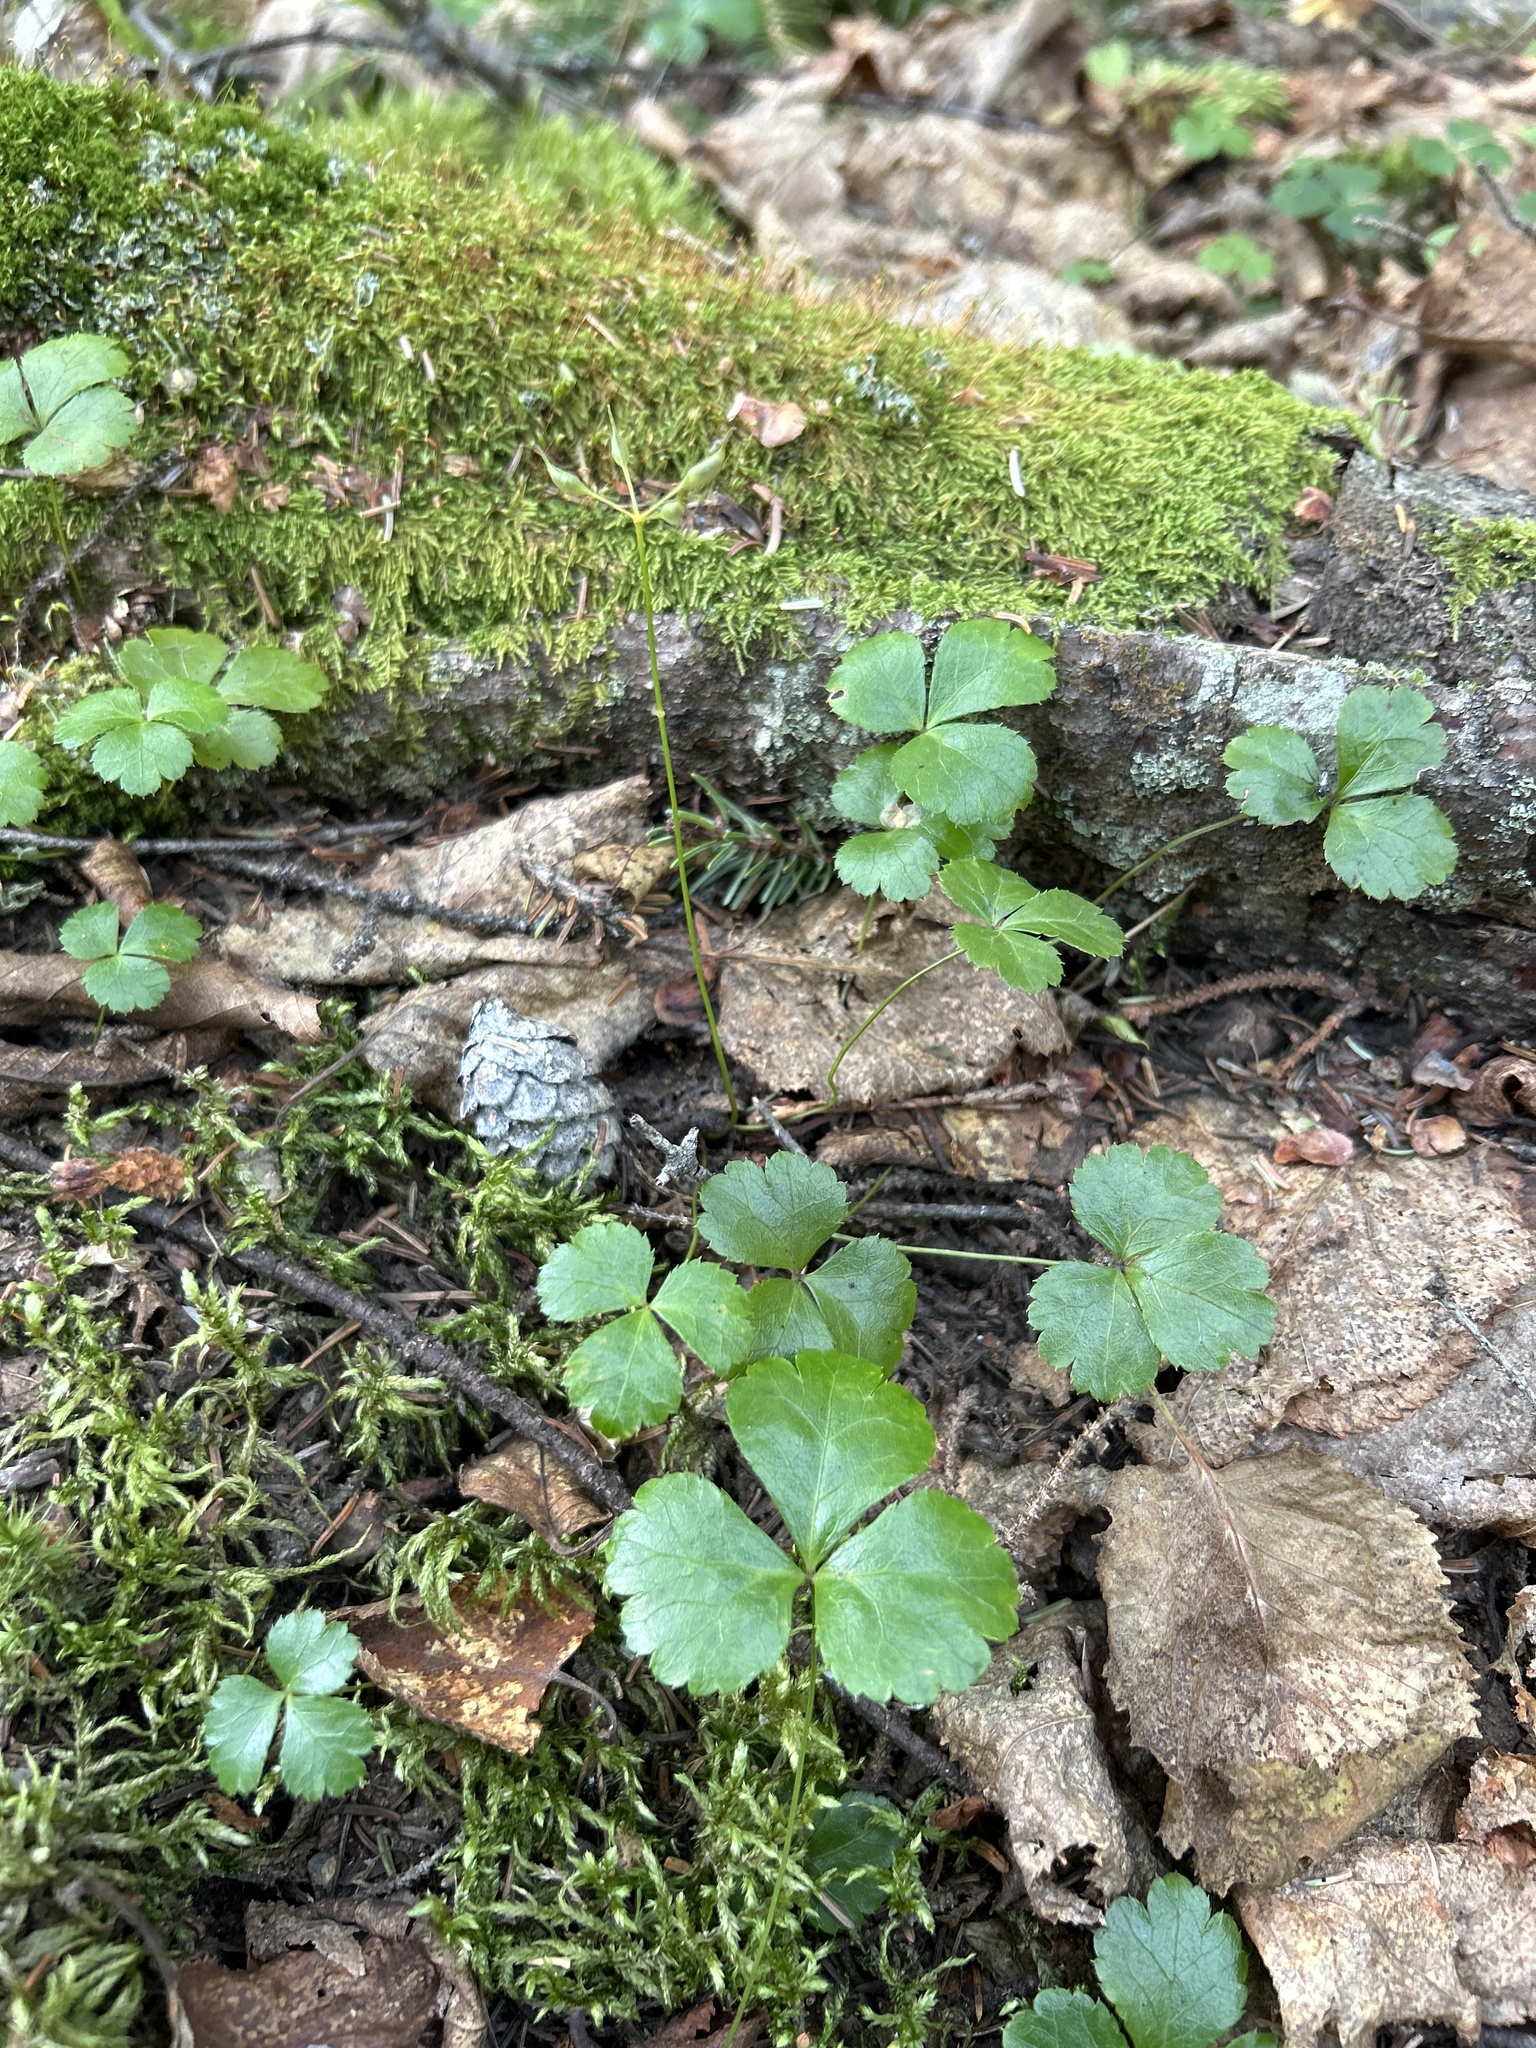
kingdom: Plantae
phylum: Tracheophyta
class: Magnoliopsida
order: Ranunculales
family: Ranunculaceae
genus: Coptis
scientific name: Coptis trifolia
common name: Canker-root
